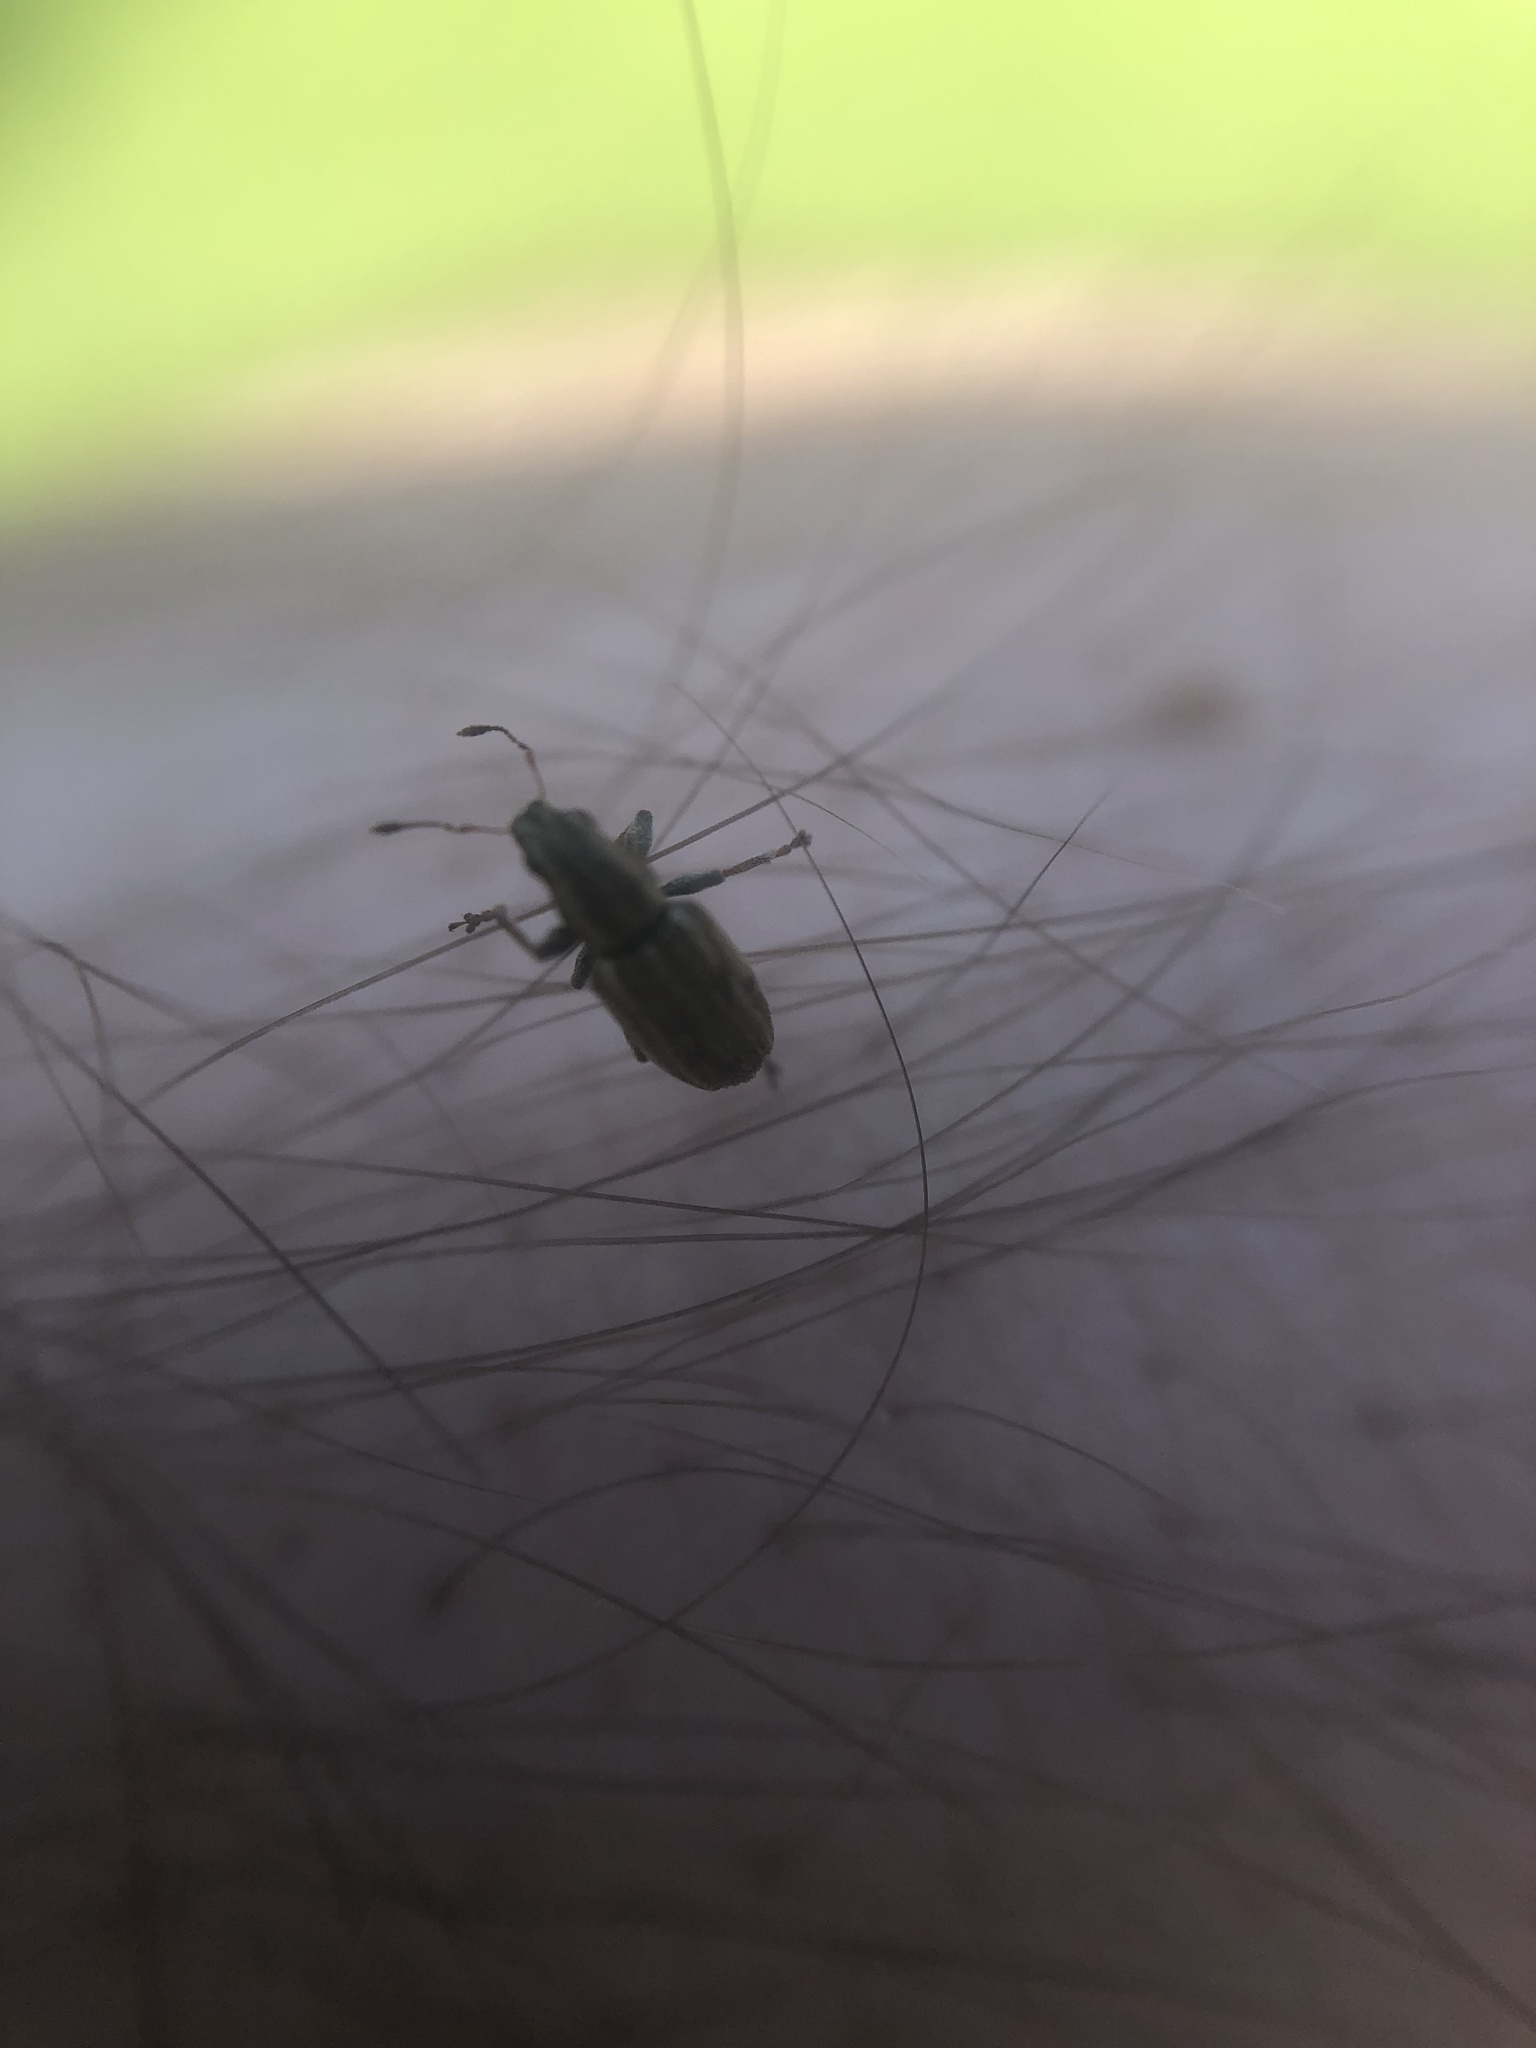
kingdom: Animalia
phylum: Arthropoda
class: Insecta
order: Coleoptera
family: Curculionidae
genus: Sitona
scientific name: Sitona lineatus
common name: Weevil
